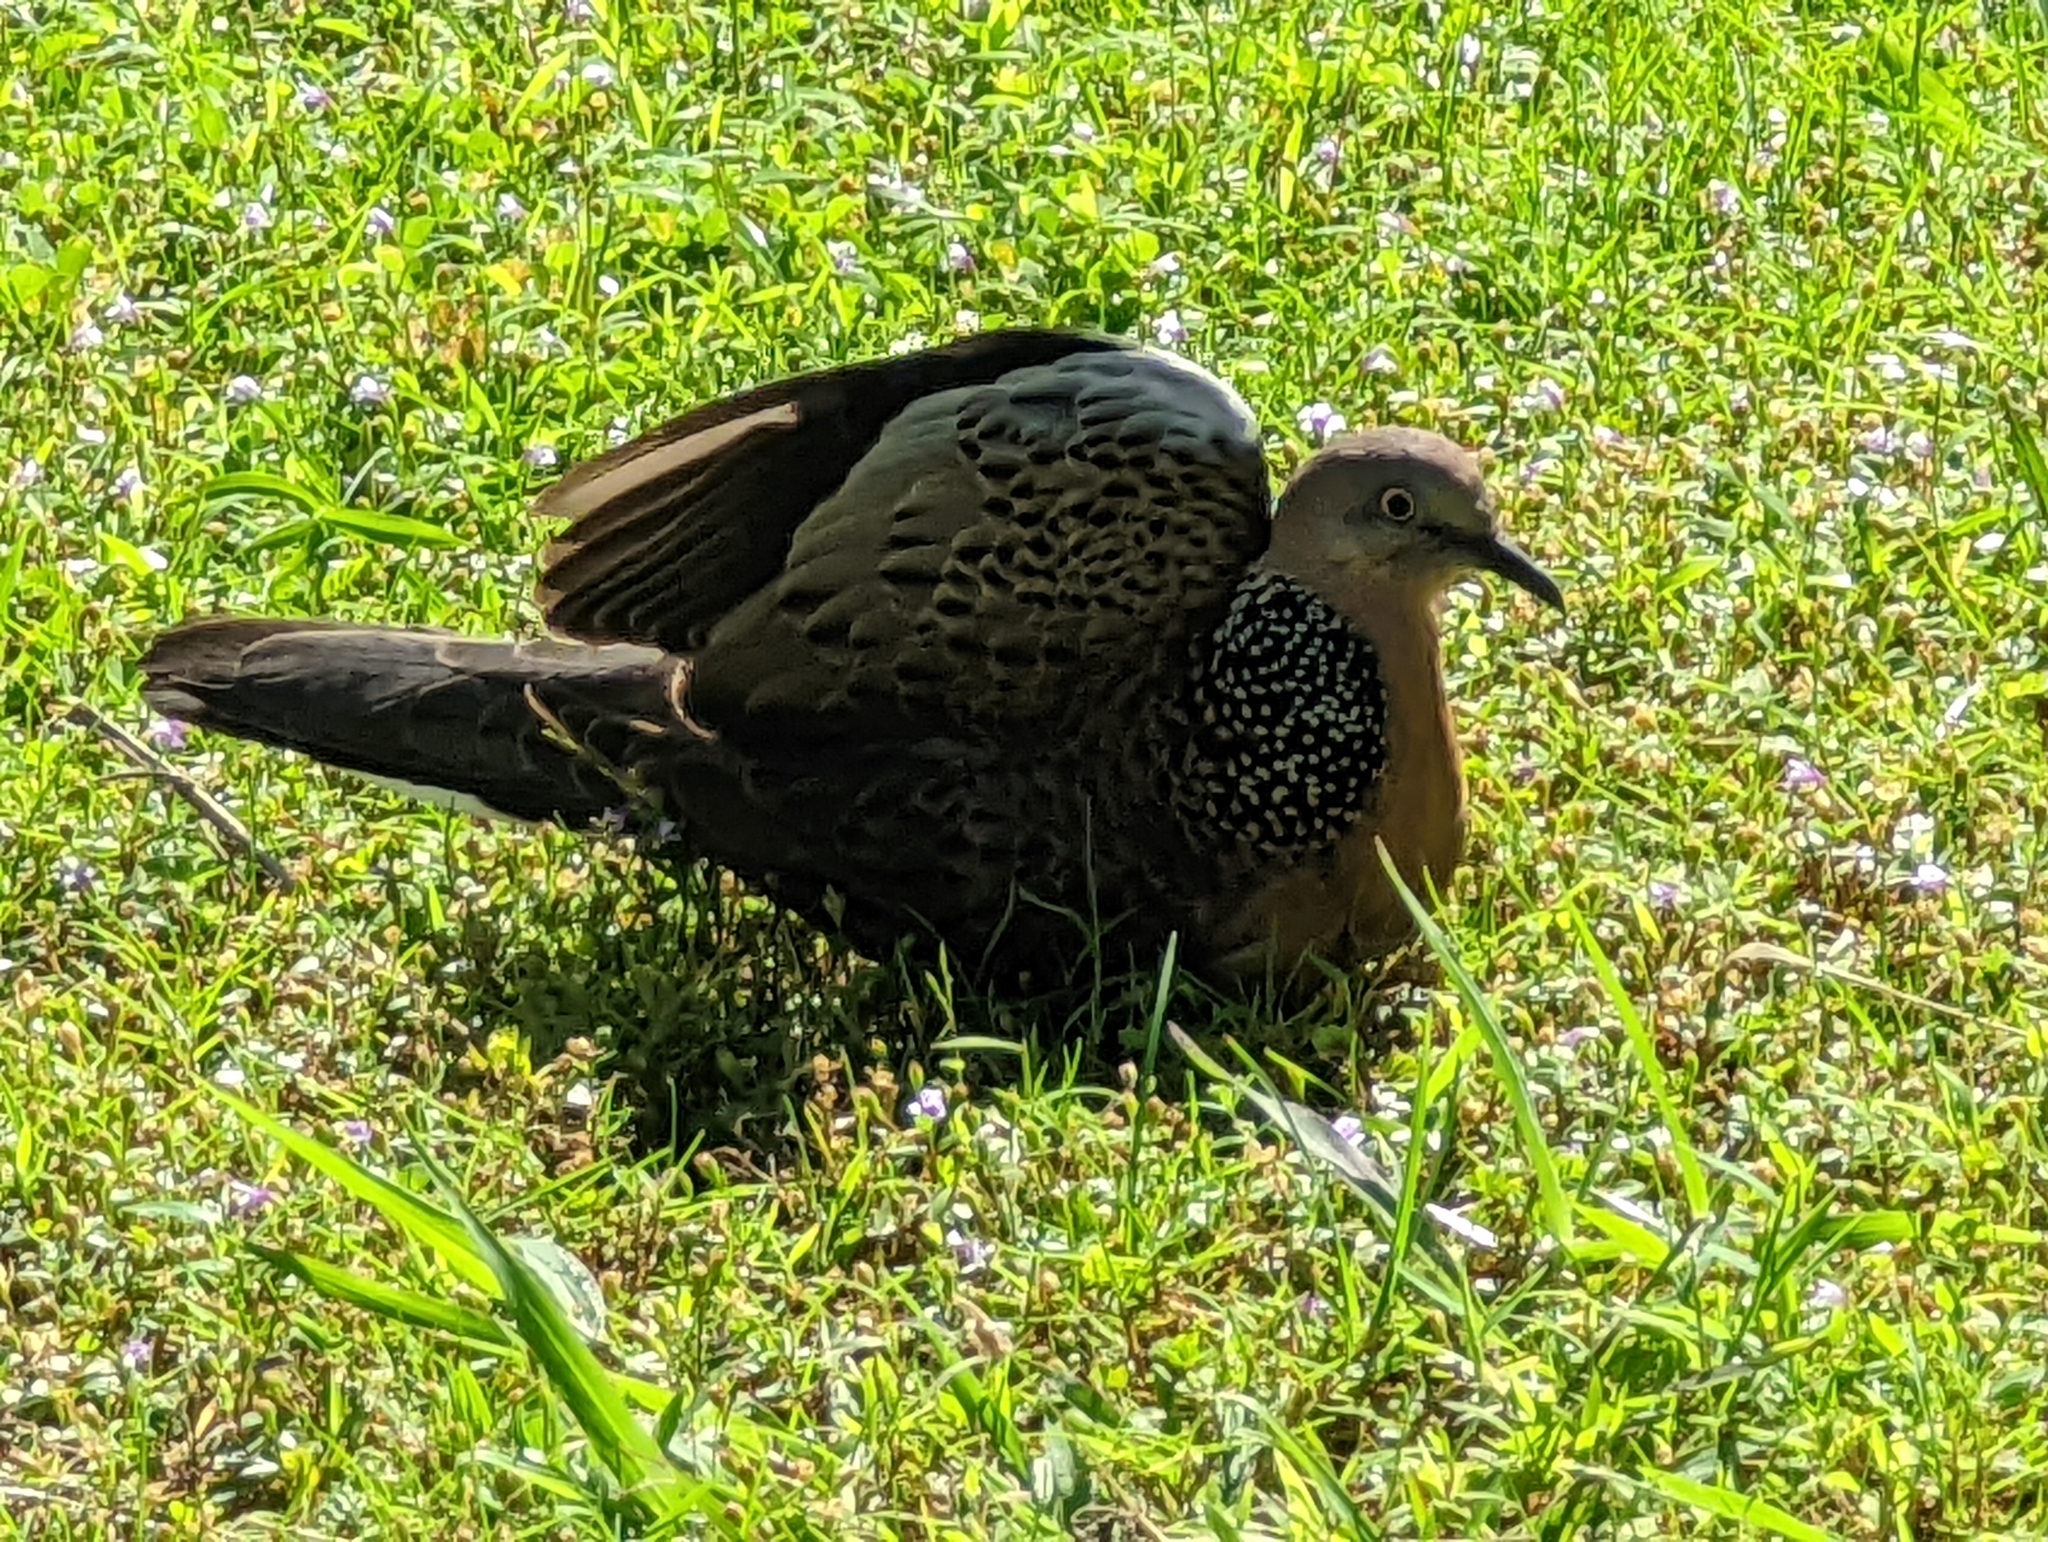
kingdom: Animalia
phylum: Chordata
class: Aves
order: Columbiformes
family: Columbidae
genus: Spilopelia
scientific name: Spilopelia chinensis
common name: Spotted dove
